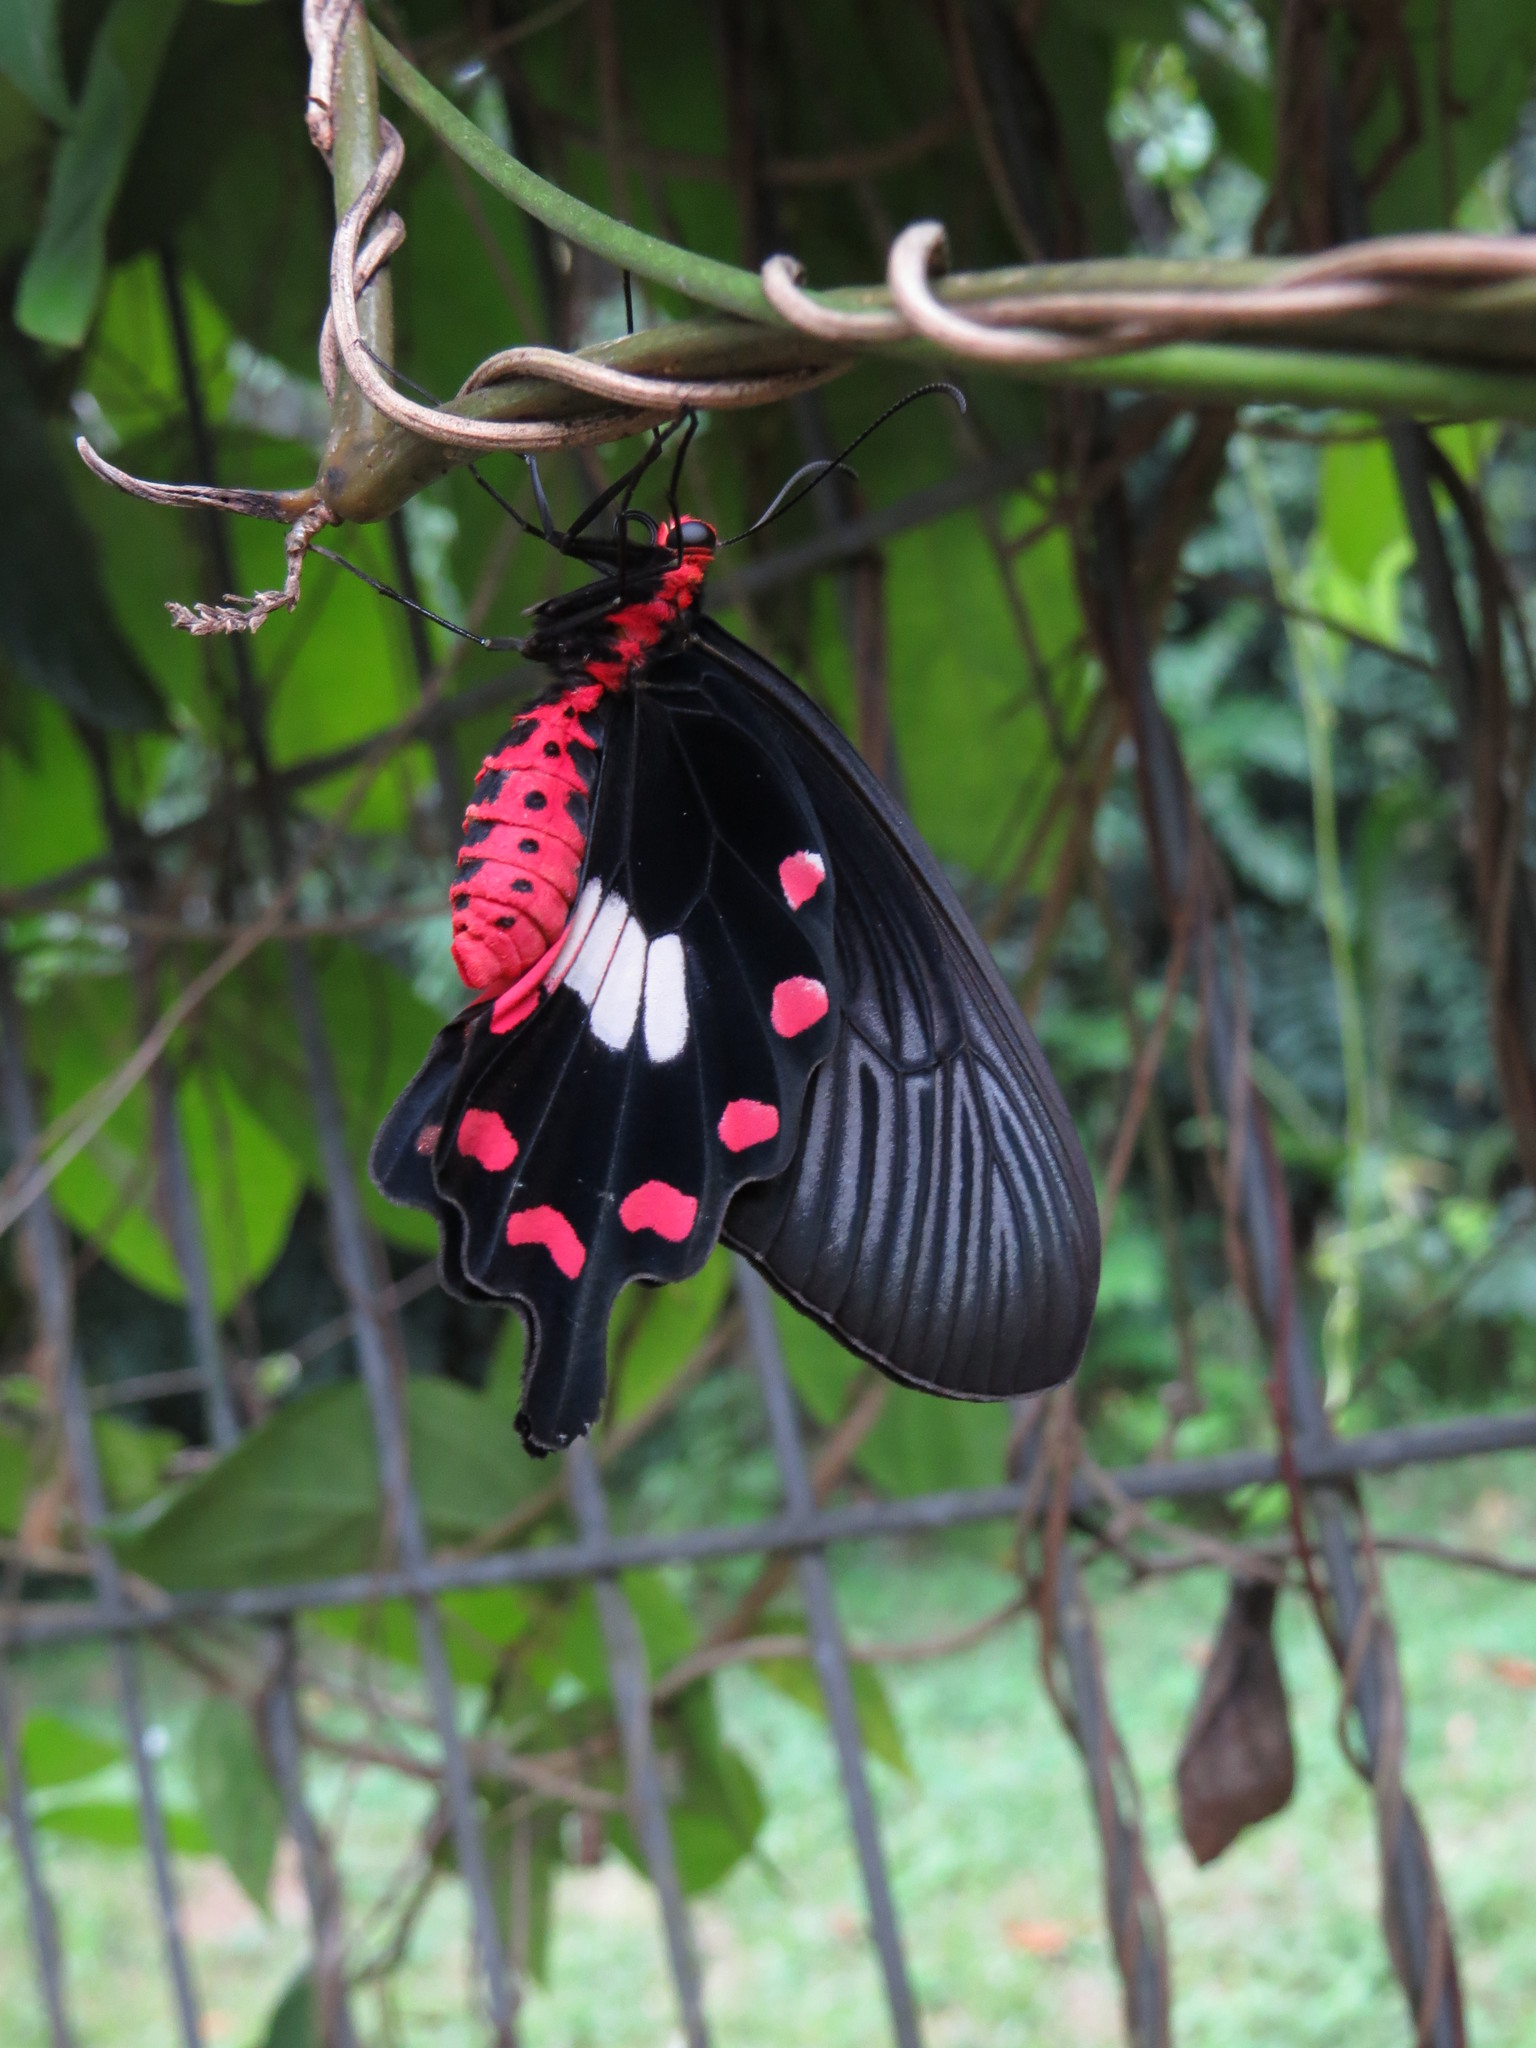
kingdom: Animalia
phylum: Arthropoda
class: Insecta
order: Lepidoptera
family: Papilionidae
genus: Pachliopta
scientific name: Pachliopta aristolochiae
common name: Common rose
